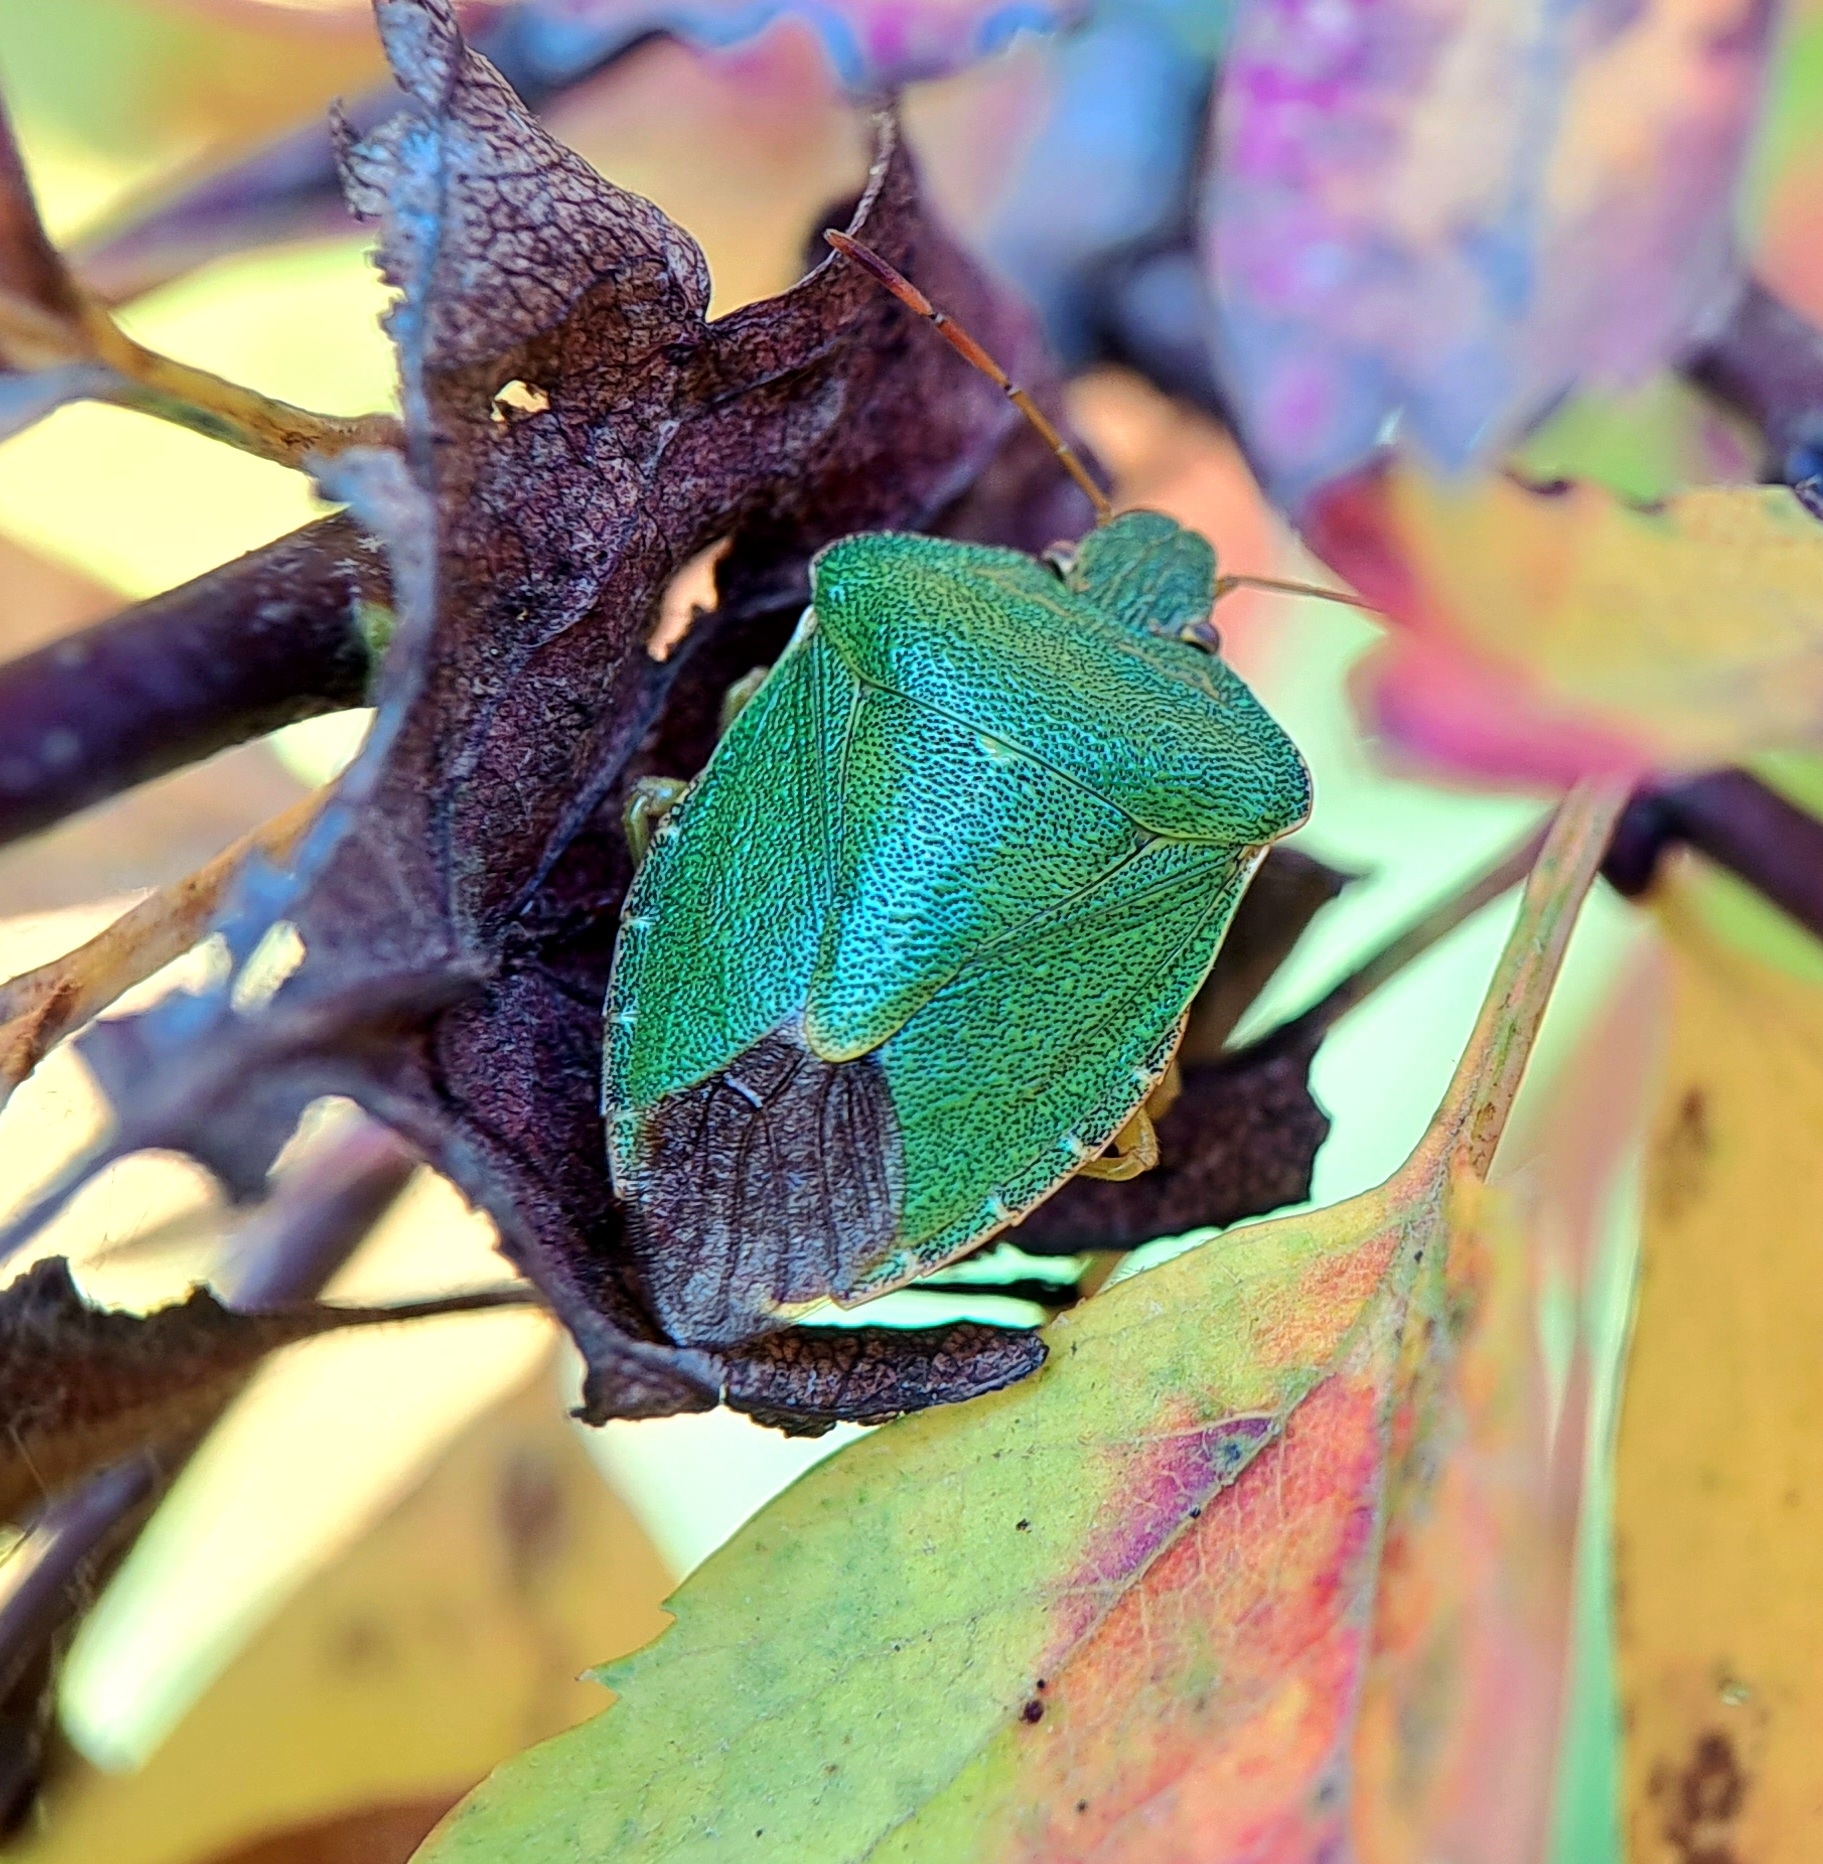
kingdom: Animalia
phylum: Arthropoda
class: Insecta
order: Hemiptera
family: Pentatomidae
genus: Palomena
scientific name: Palomena prasina
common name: Green shieldbug
